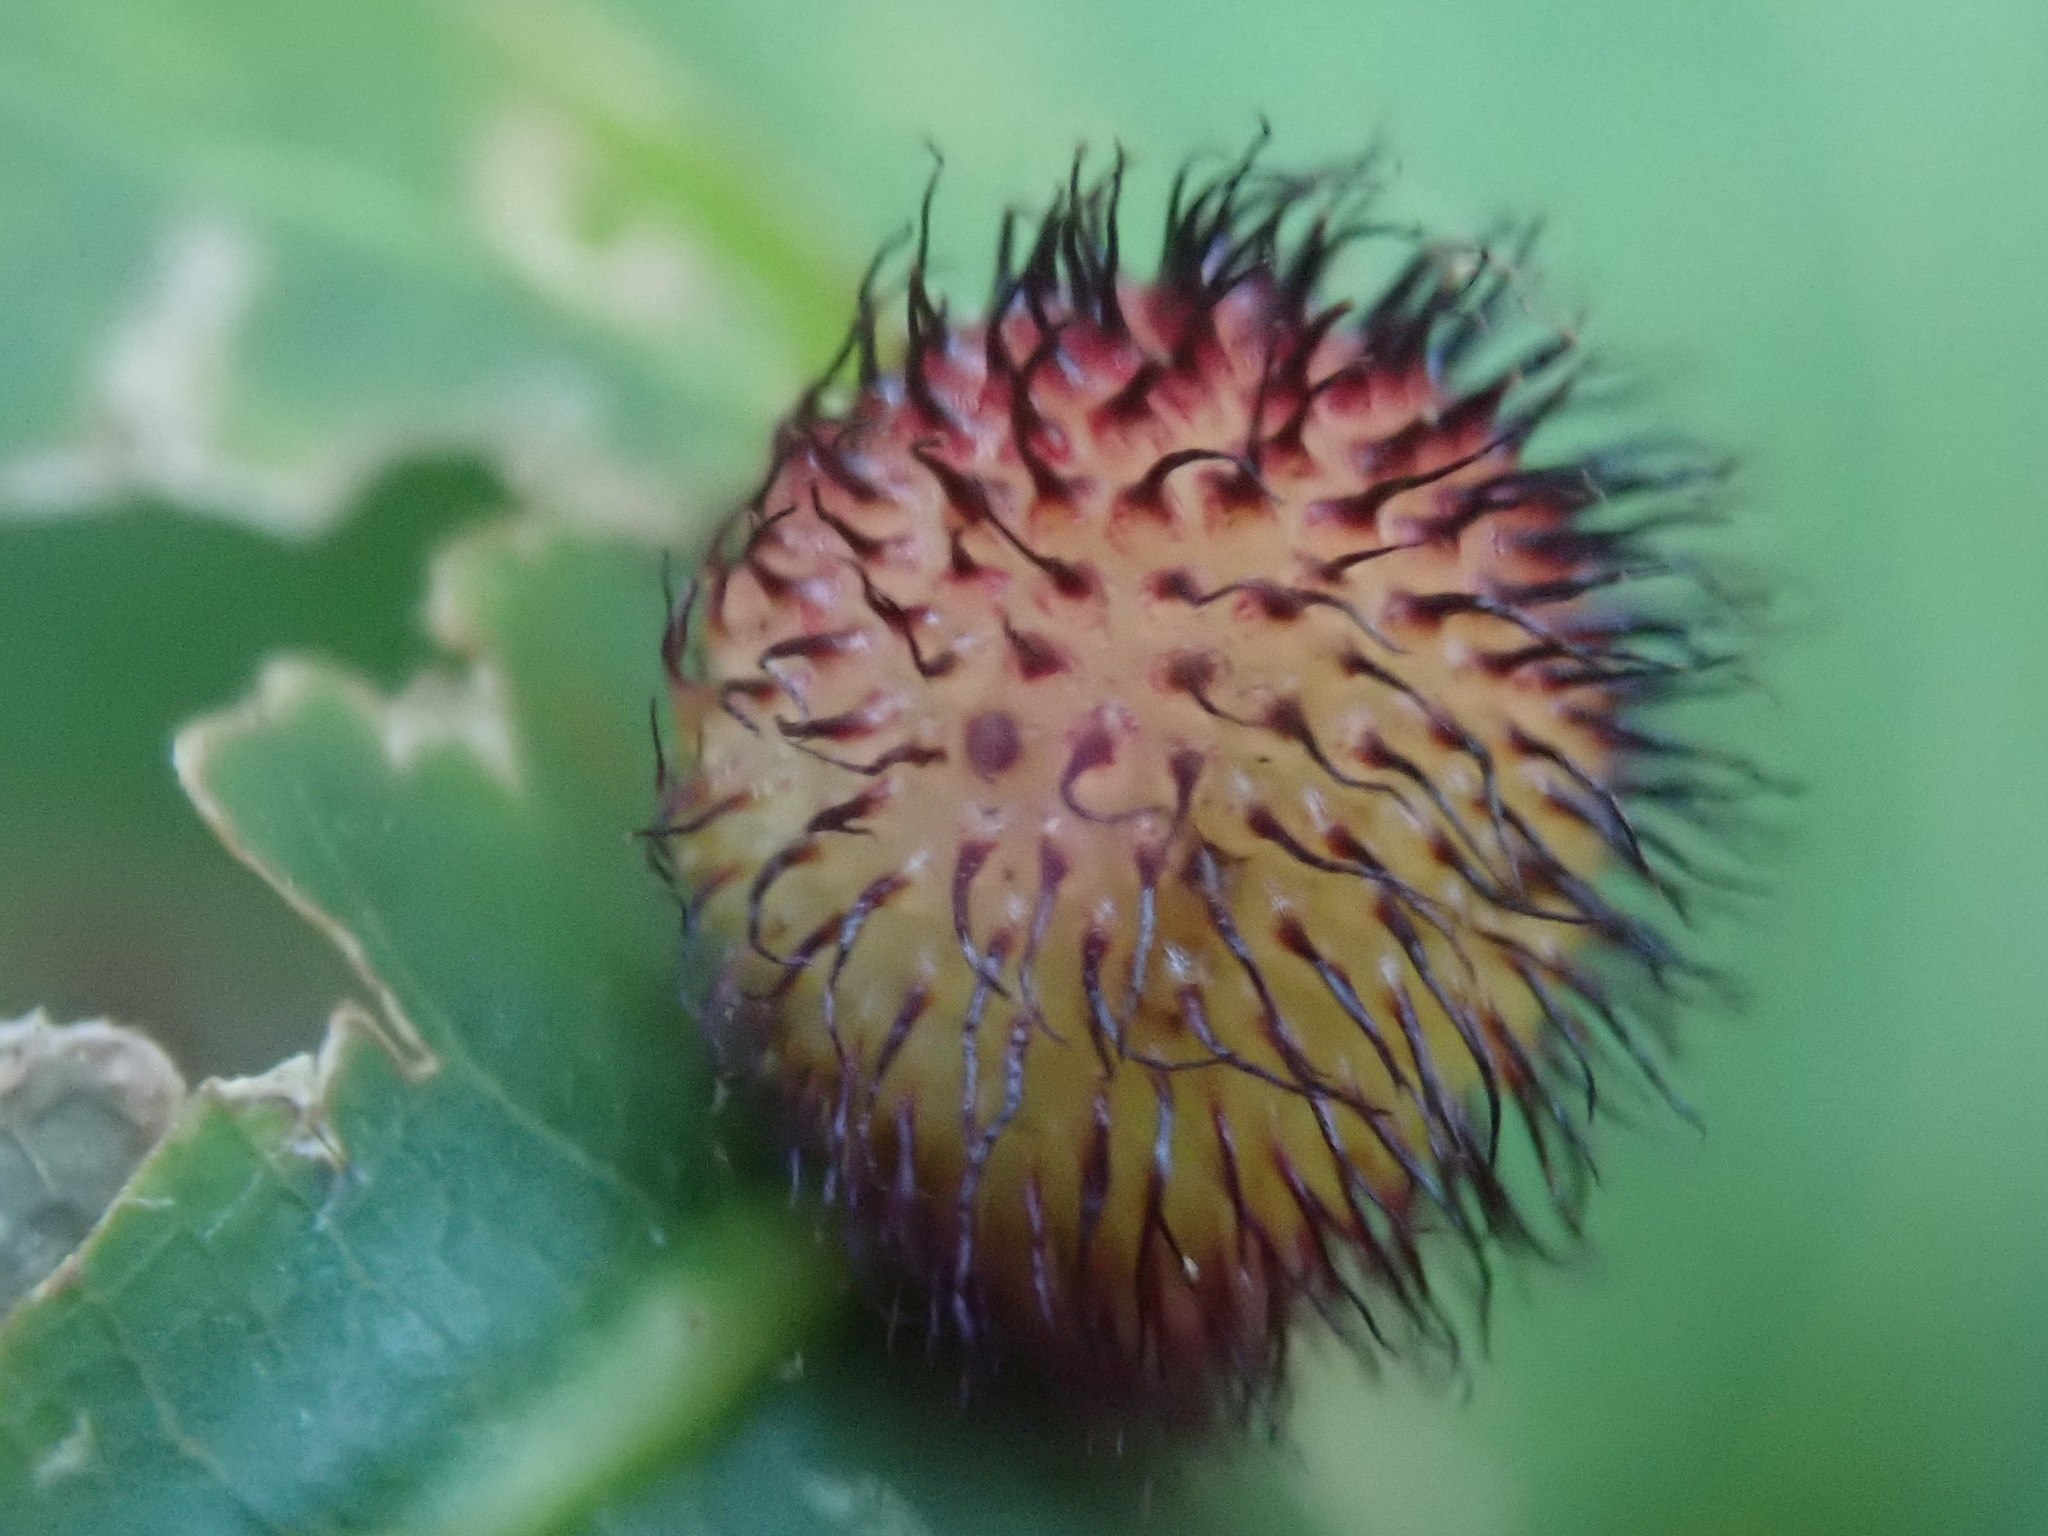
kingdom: Animalia
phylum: Arthropoda
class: Insecta
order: Hymenoptera
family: Cynipidae
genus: Acraspis
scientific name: Acraspis erinacei
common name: Hedgehog gall wasp
